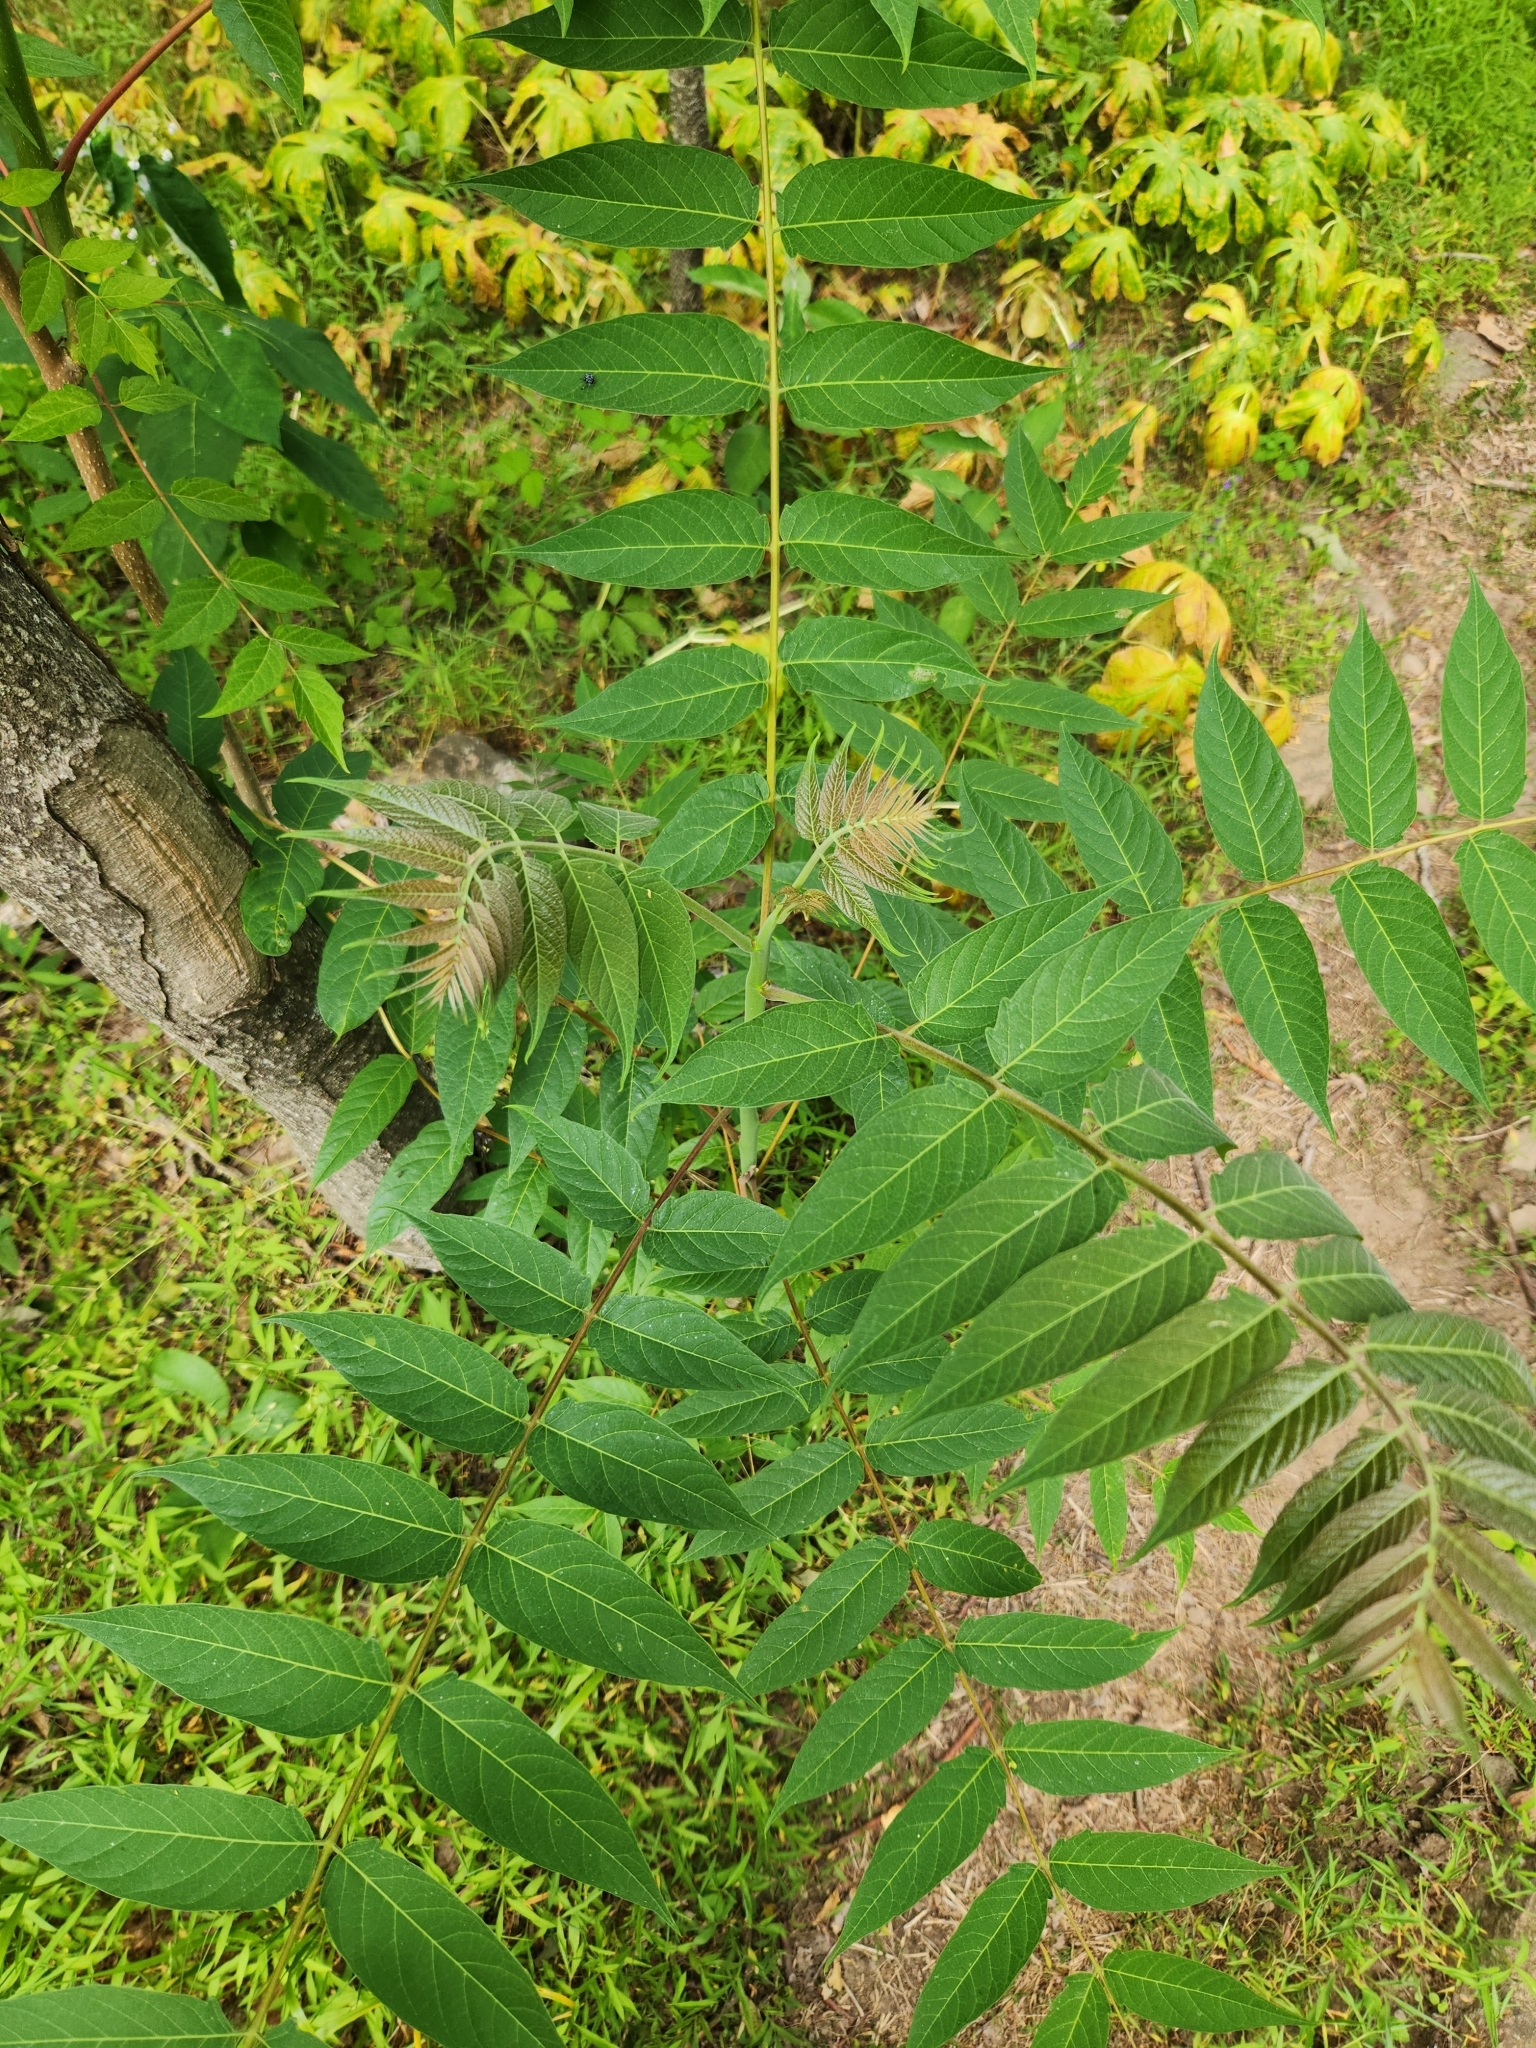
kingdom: Plantae
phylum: Tracheophyta
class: Magnoliopsida
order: Sapindales
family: Simaroubaceae
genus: Ailanthus
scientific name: Ailanthus altissima
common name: Tree-of-heaven
